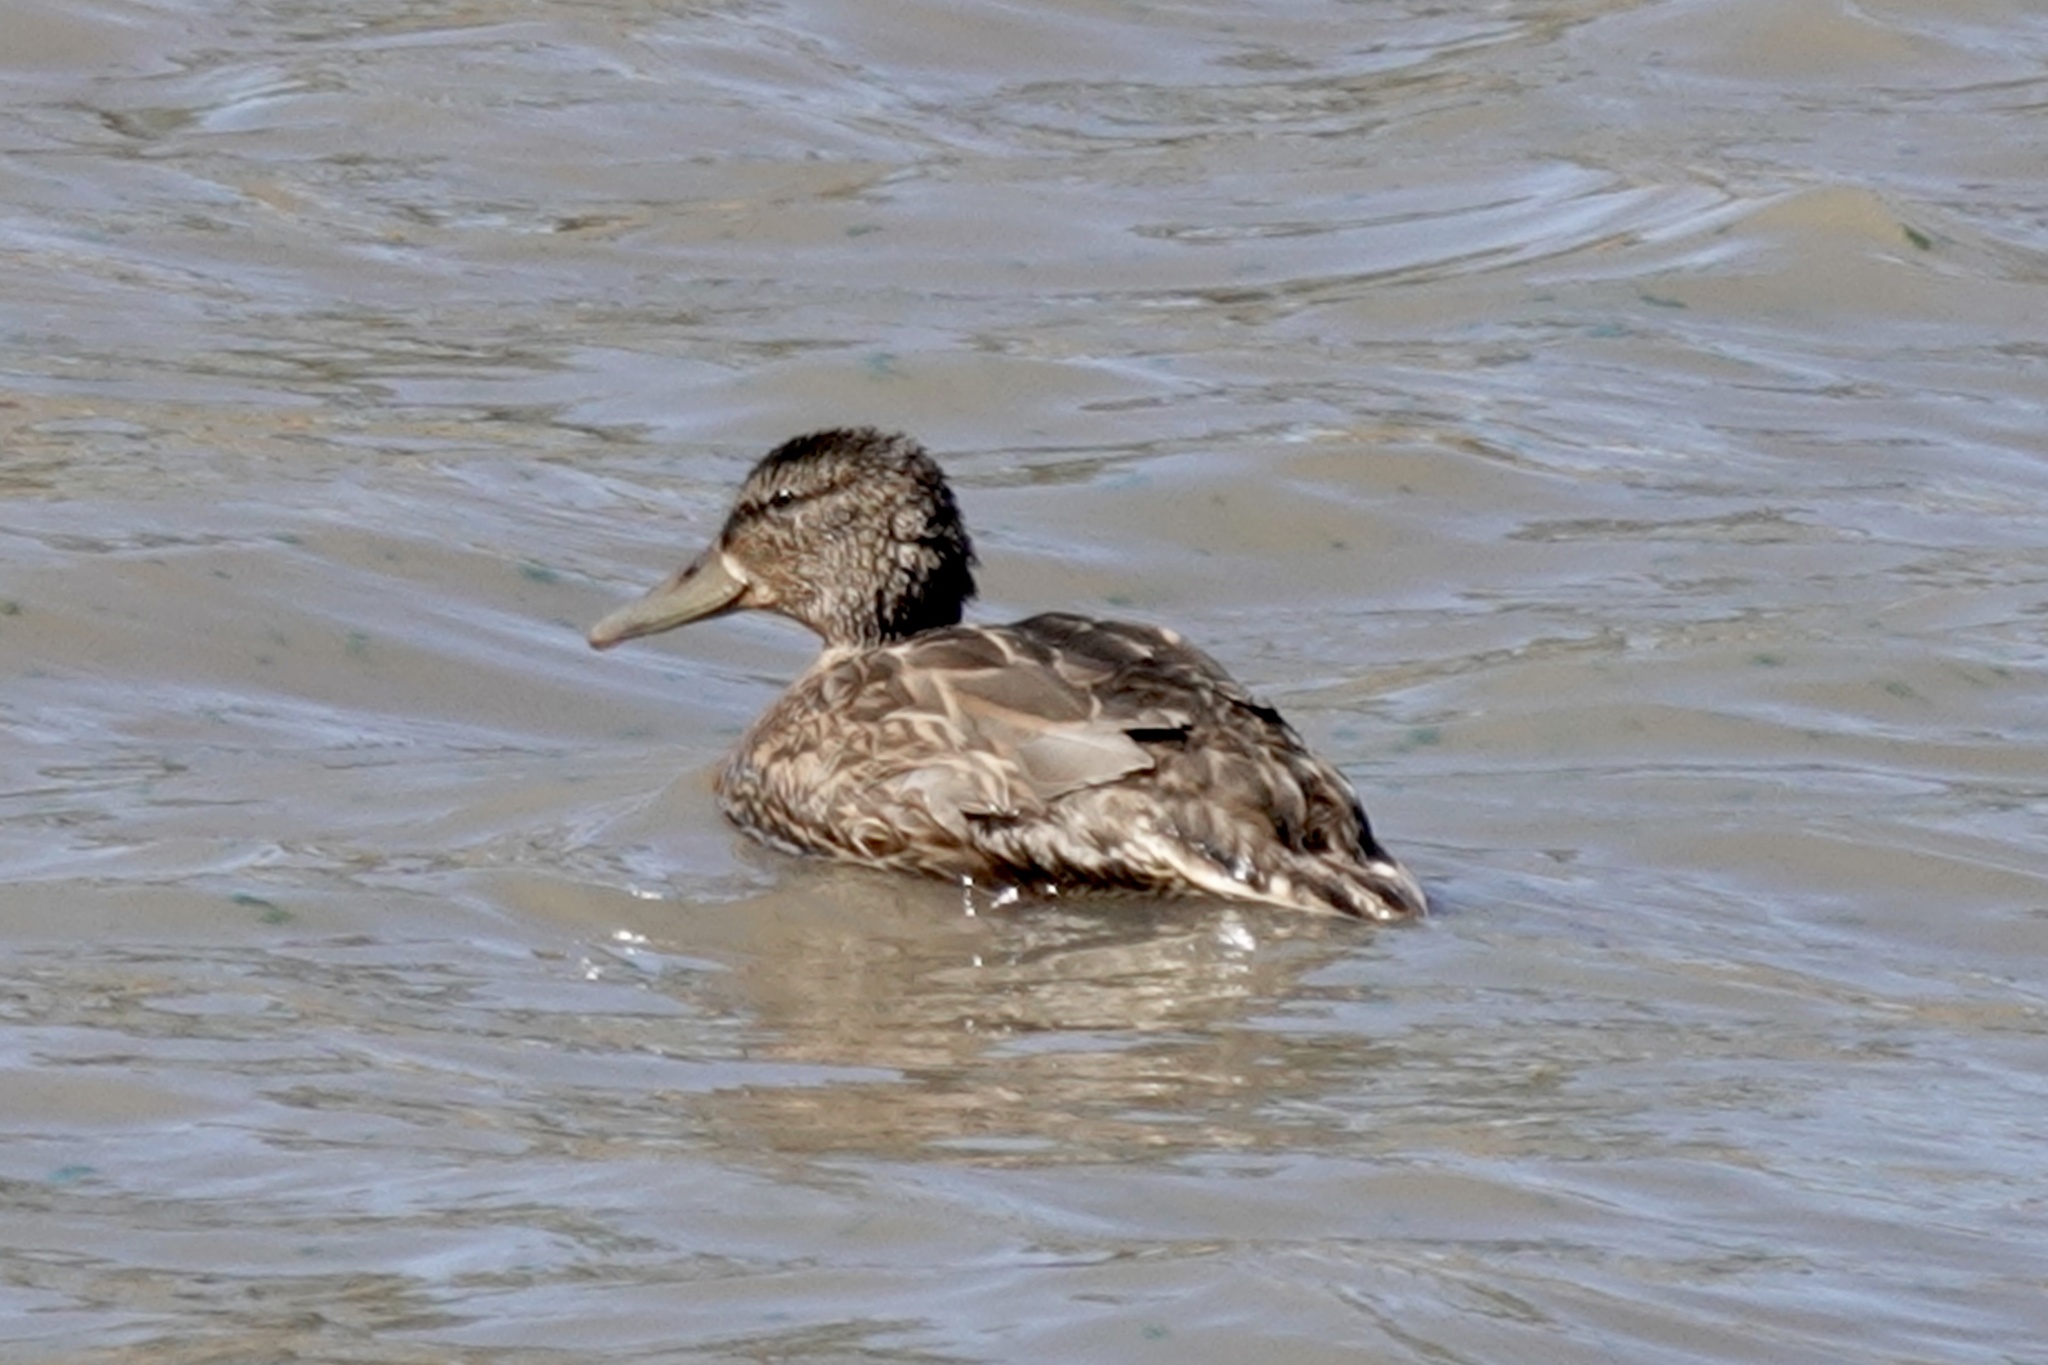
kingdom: Animalia
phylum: Chordata
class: Aves
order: Anseriformes
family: Anatidae
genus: Anas
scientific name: Anas platyrhynchos
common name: Mallard
